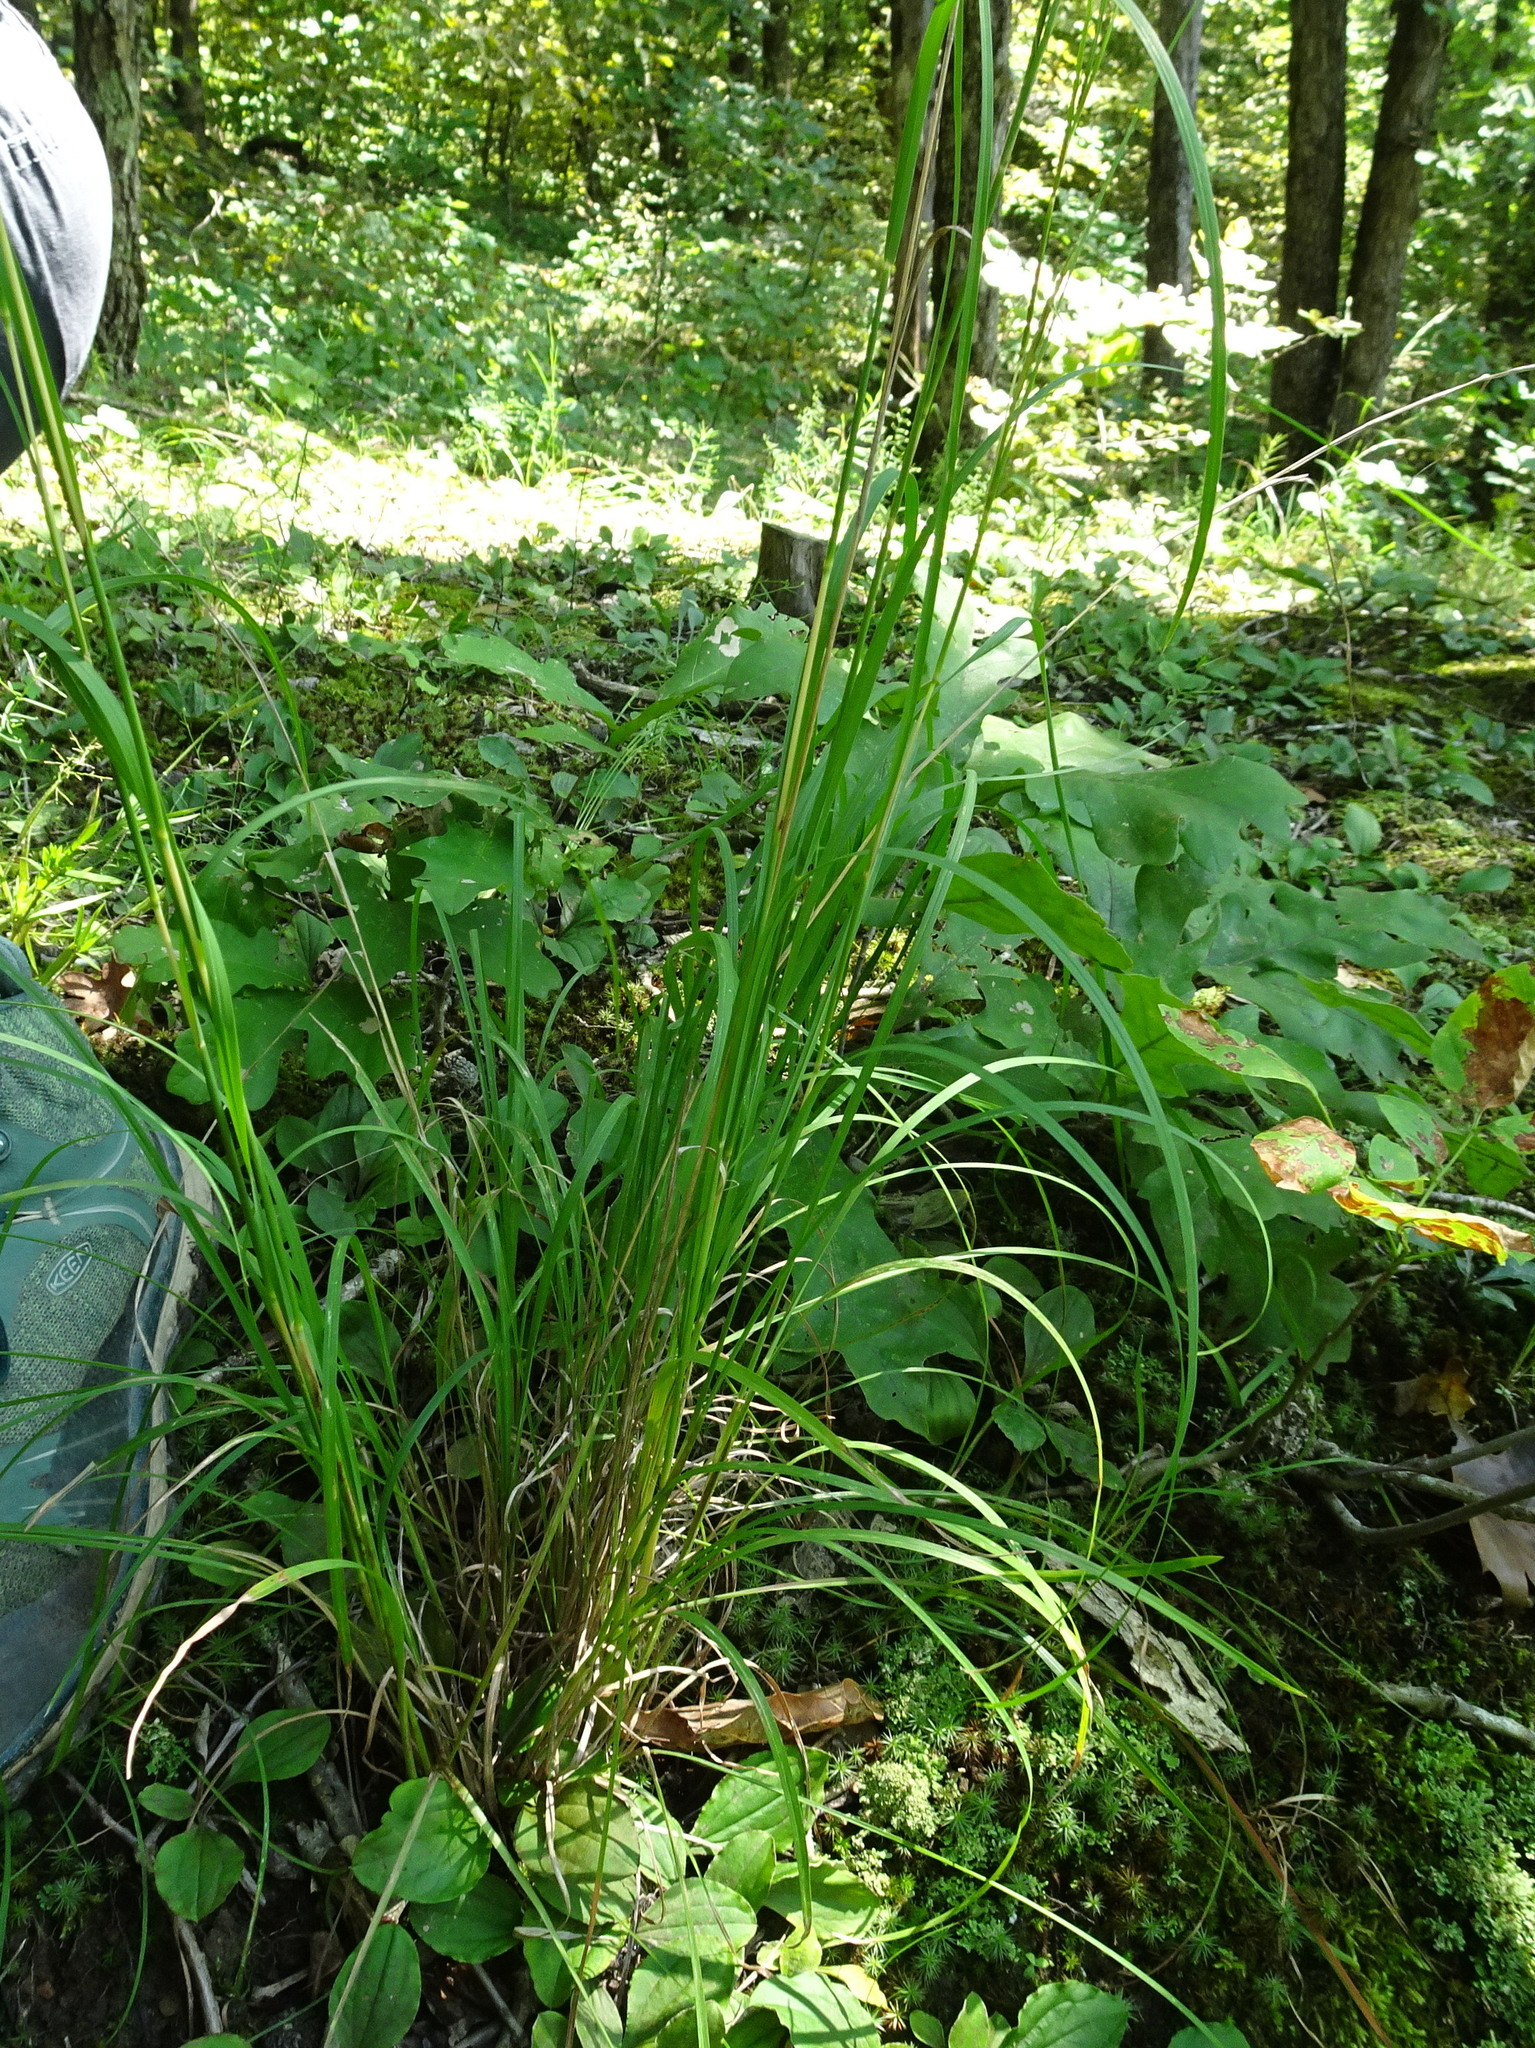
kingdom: Plantae
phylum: Tracheophyta
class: Liliopsida
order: Poales
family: Poaceae
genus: Schizachyrium
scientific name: Schizachyrium scoparium
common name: Little bluestem
